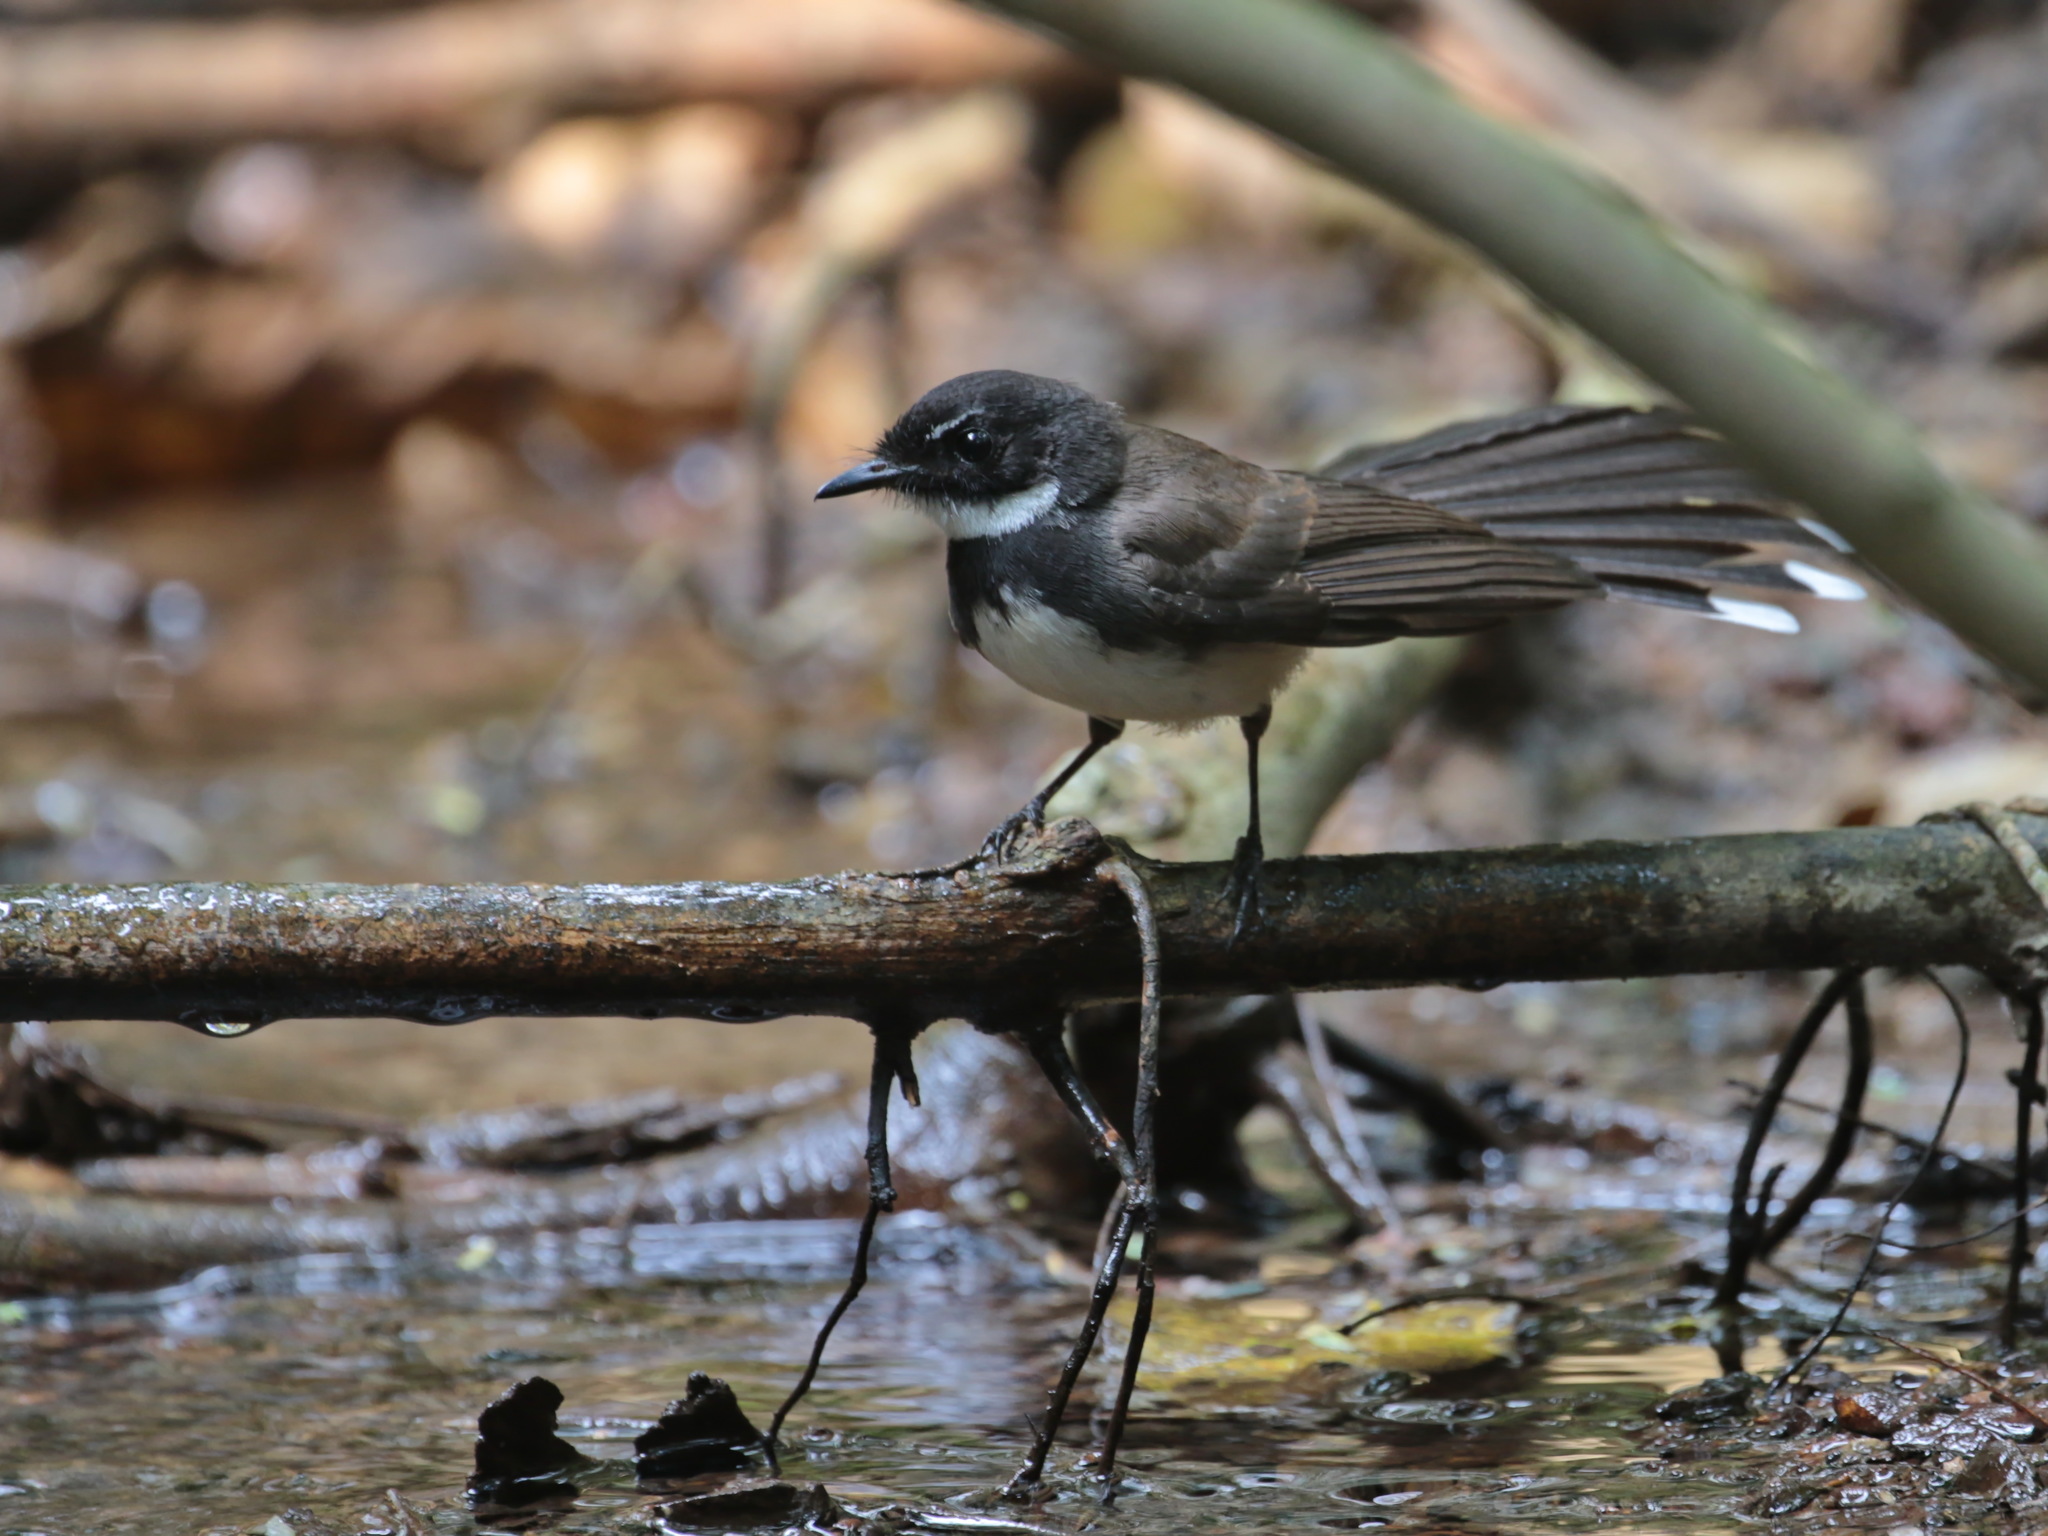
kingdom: Animalia
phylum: Chordata
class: Aves
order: Passeriformes
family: Rhipiduridae
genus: Rhipidura
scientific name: Rhipidura javanica
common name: Pied fantail
